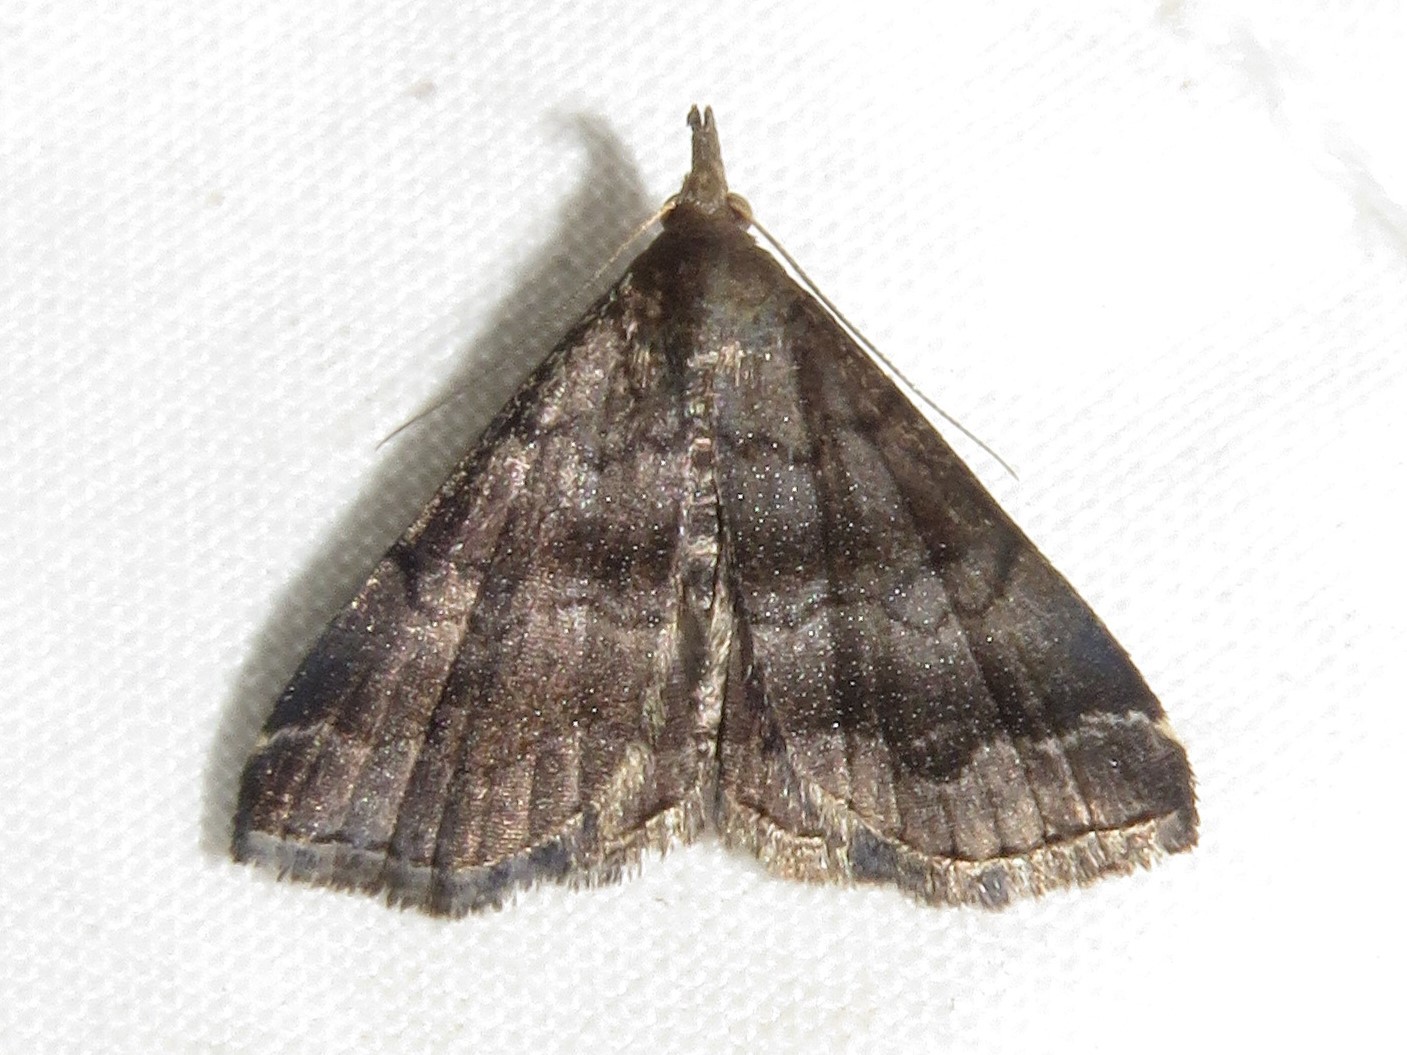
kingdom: Animalia
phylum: Arthropoda
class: Insecta
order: Lepidoptera
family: Erebidae
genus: Phalaenostola
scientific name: Phalaenostola larentioides
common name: Black-banded owlet
